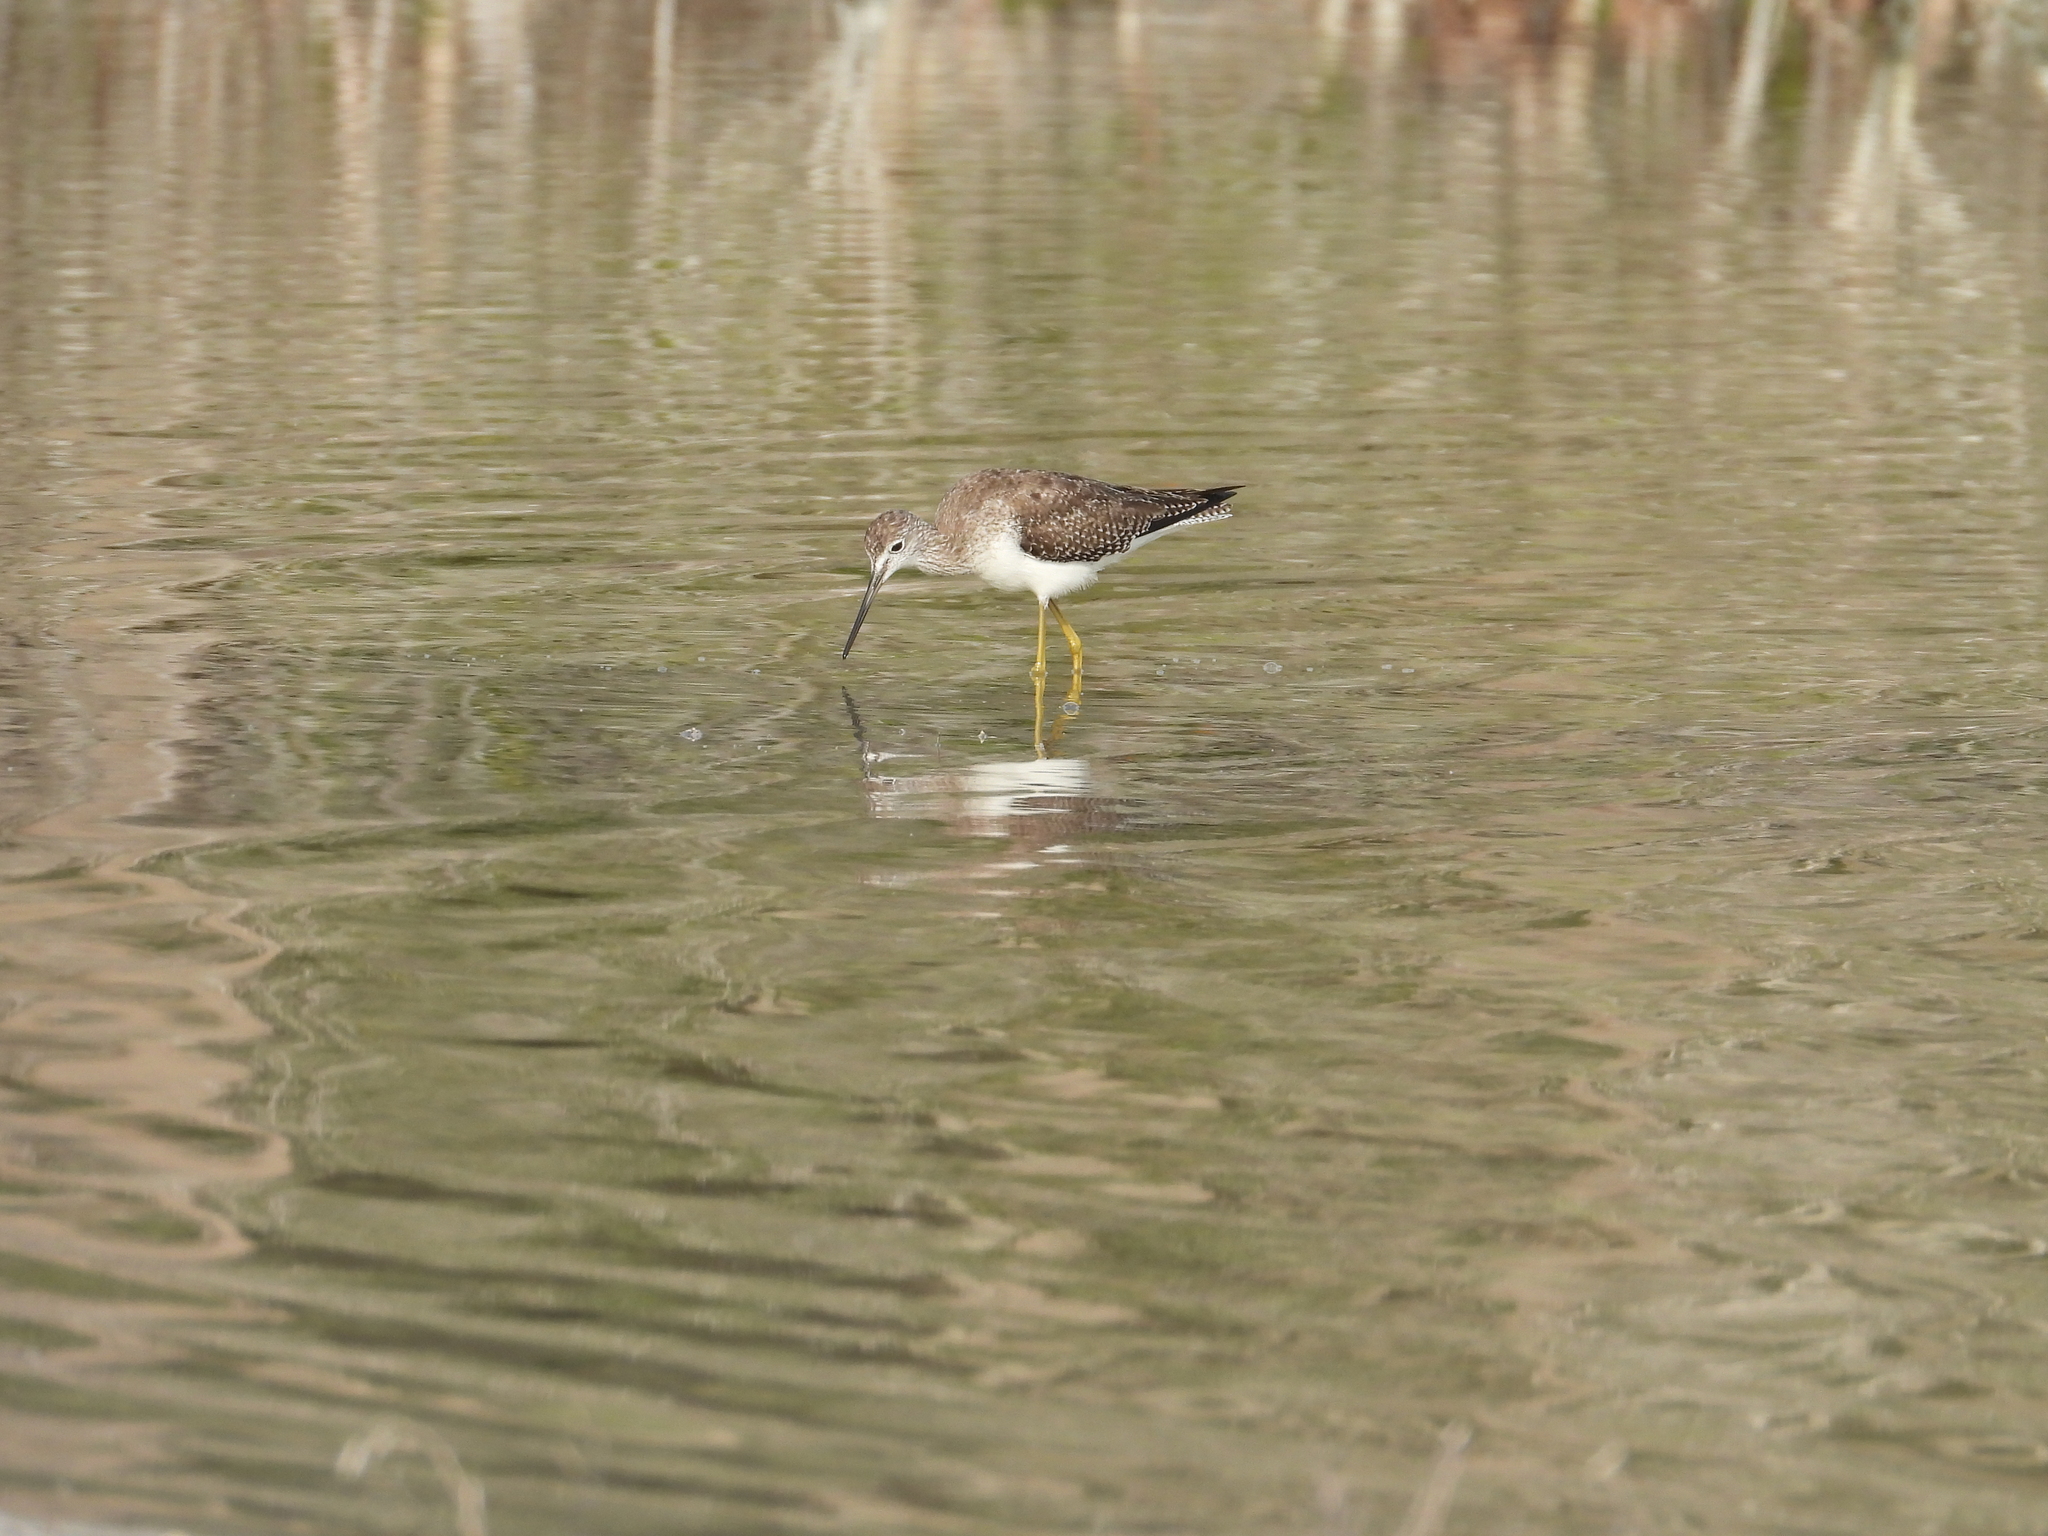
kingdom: Animalia
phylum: Chordata
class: Aves
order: Charadriiformes
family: Scolopacidae
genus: Tringa
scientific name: Tringa melanoleuca
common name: Greater yellowlegs
